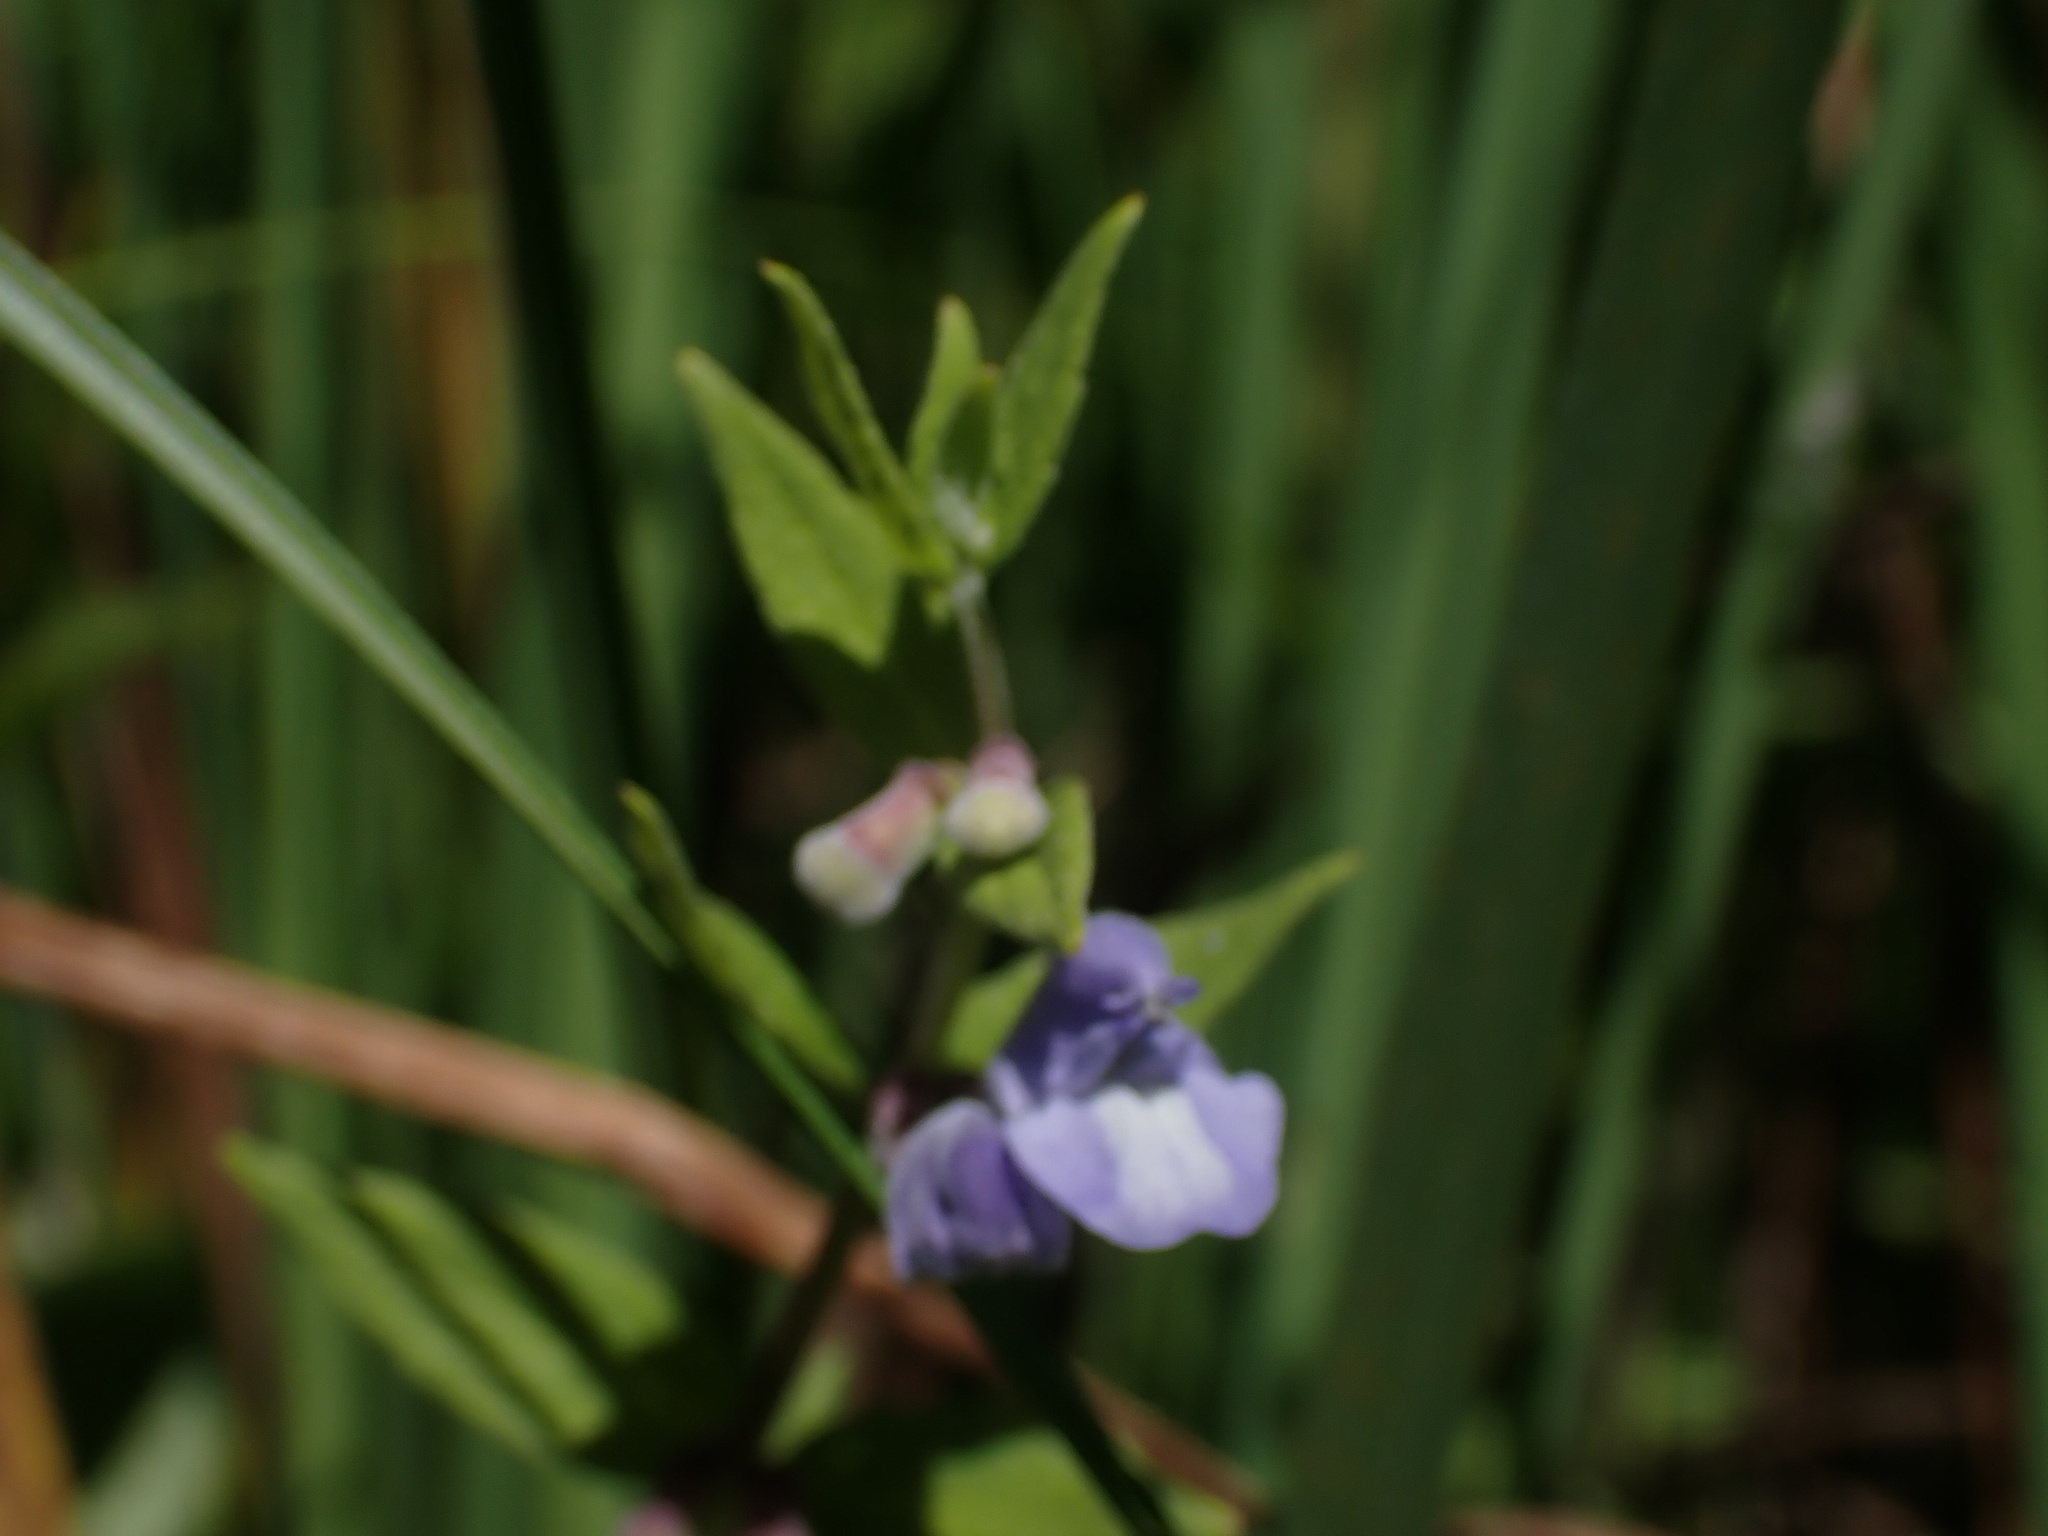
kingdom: Plantae
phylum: Tracheophyta
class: Magnoliopsida
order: Lamiales
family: Lamiaceae
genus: Scutellaria
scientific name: Scutellaria galericulata
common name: Skullcap
